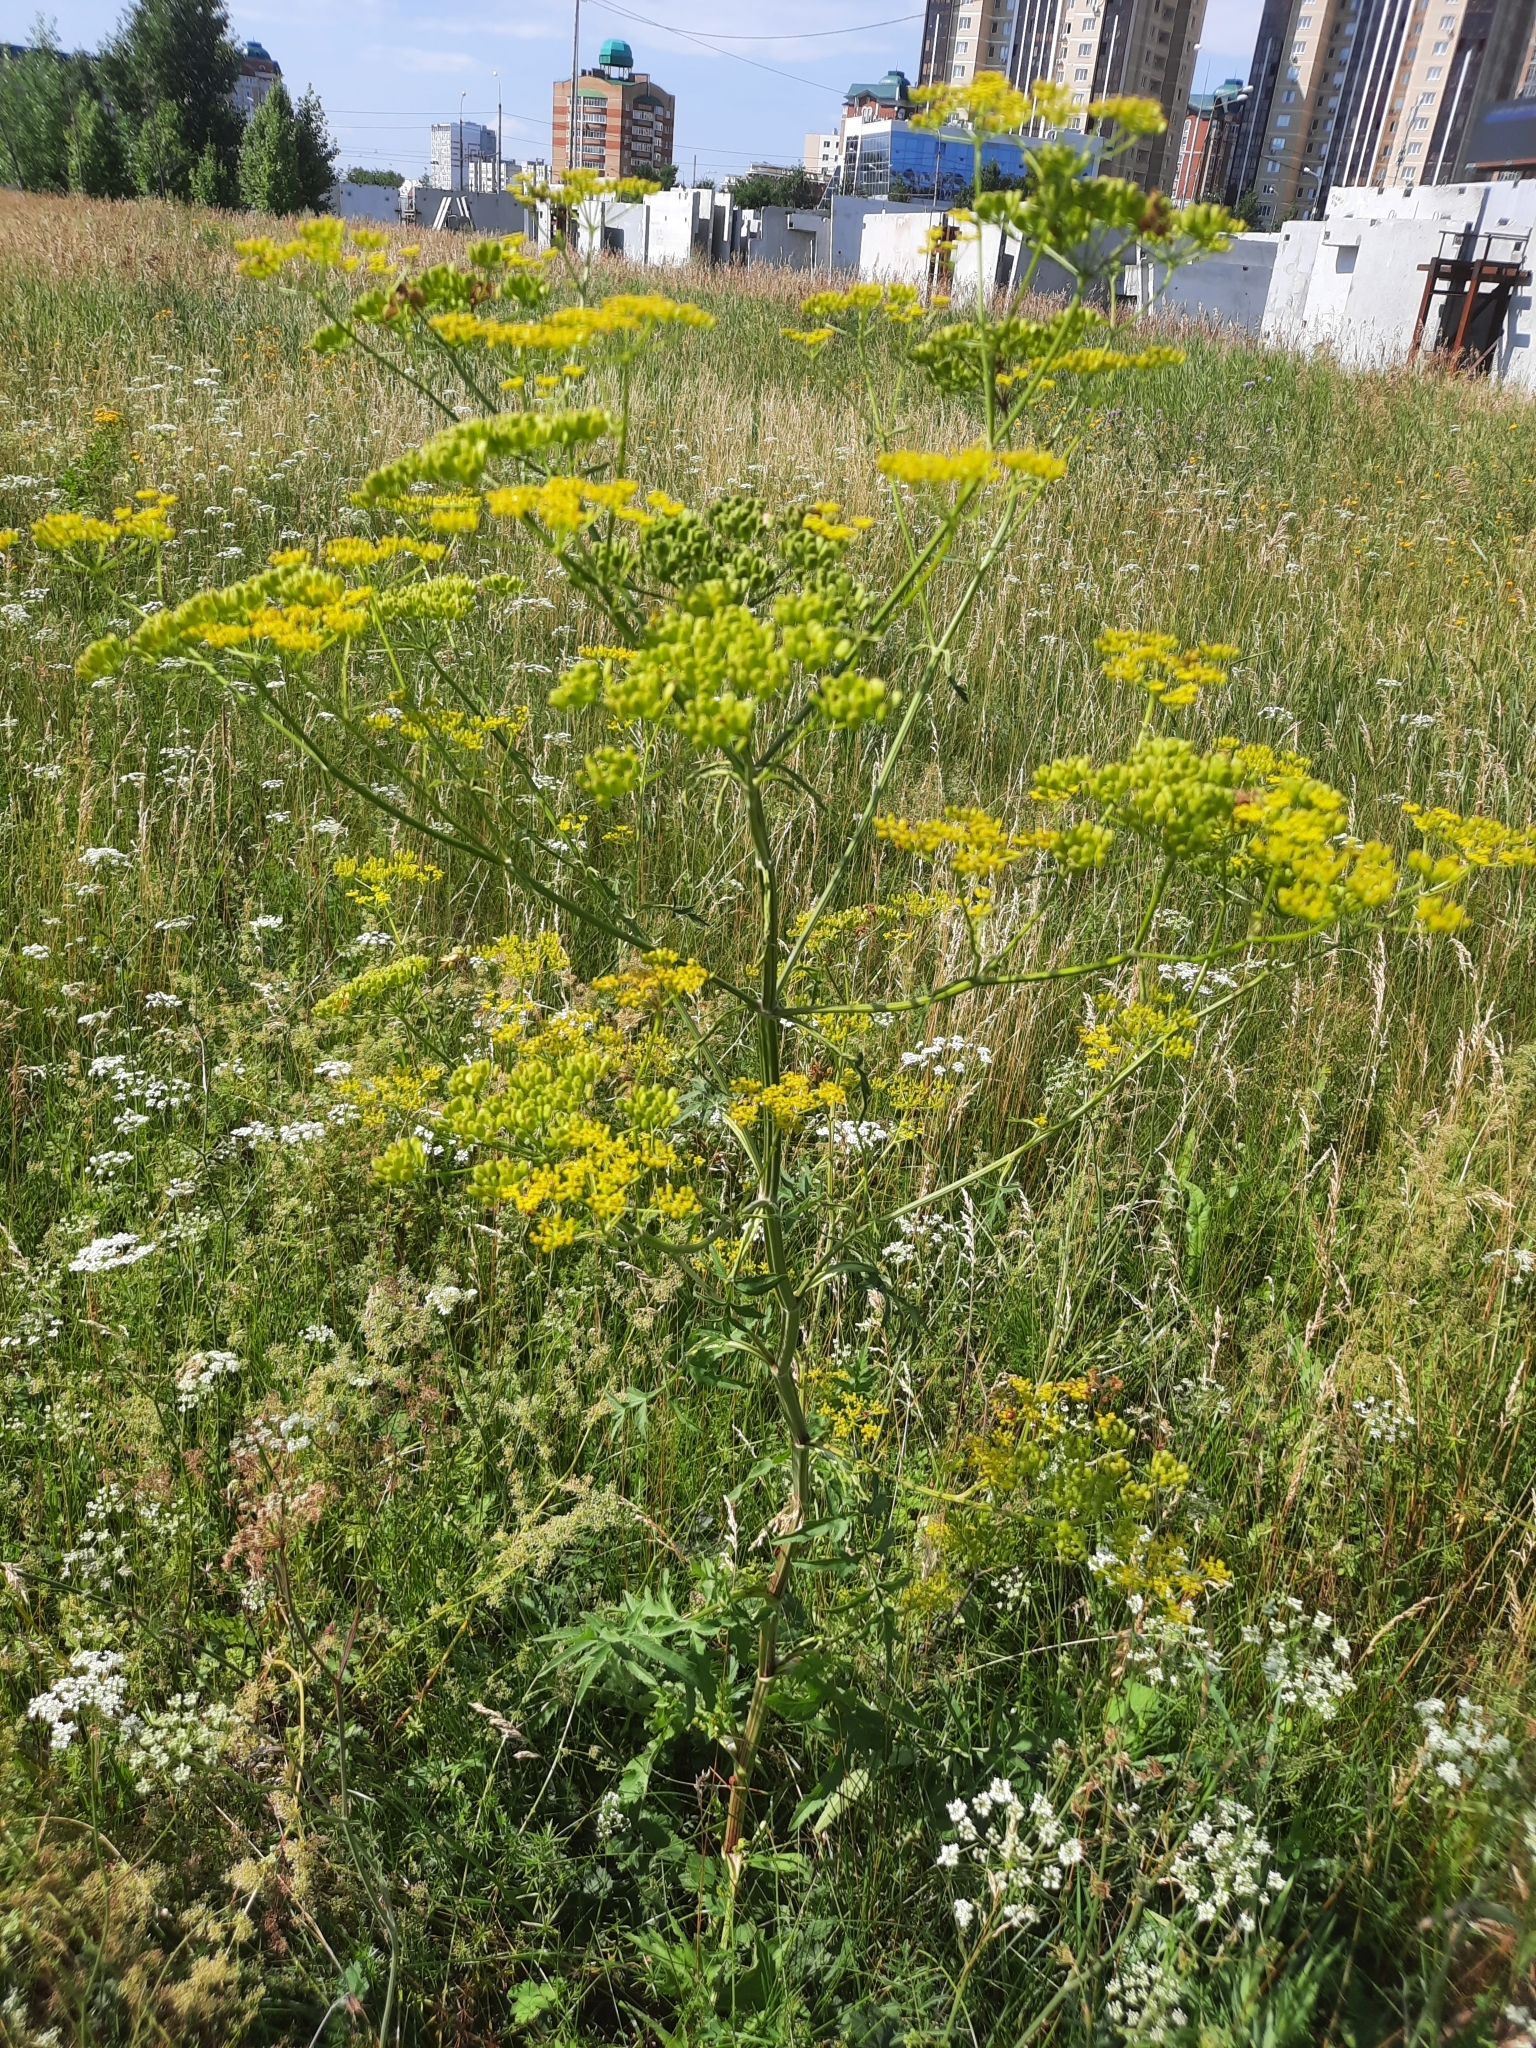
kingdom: Plantae
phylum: Tracheophyta
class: Magnoliopsida
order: Apiales
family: Apiaceae
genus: Pastinaca
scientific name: Pastinaca sativa
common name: Wild parsnip
